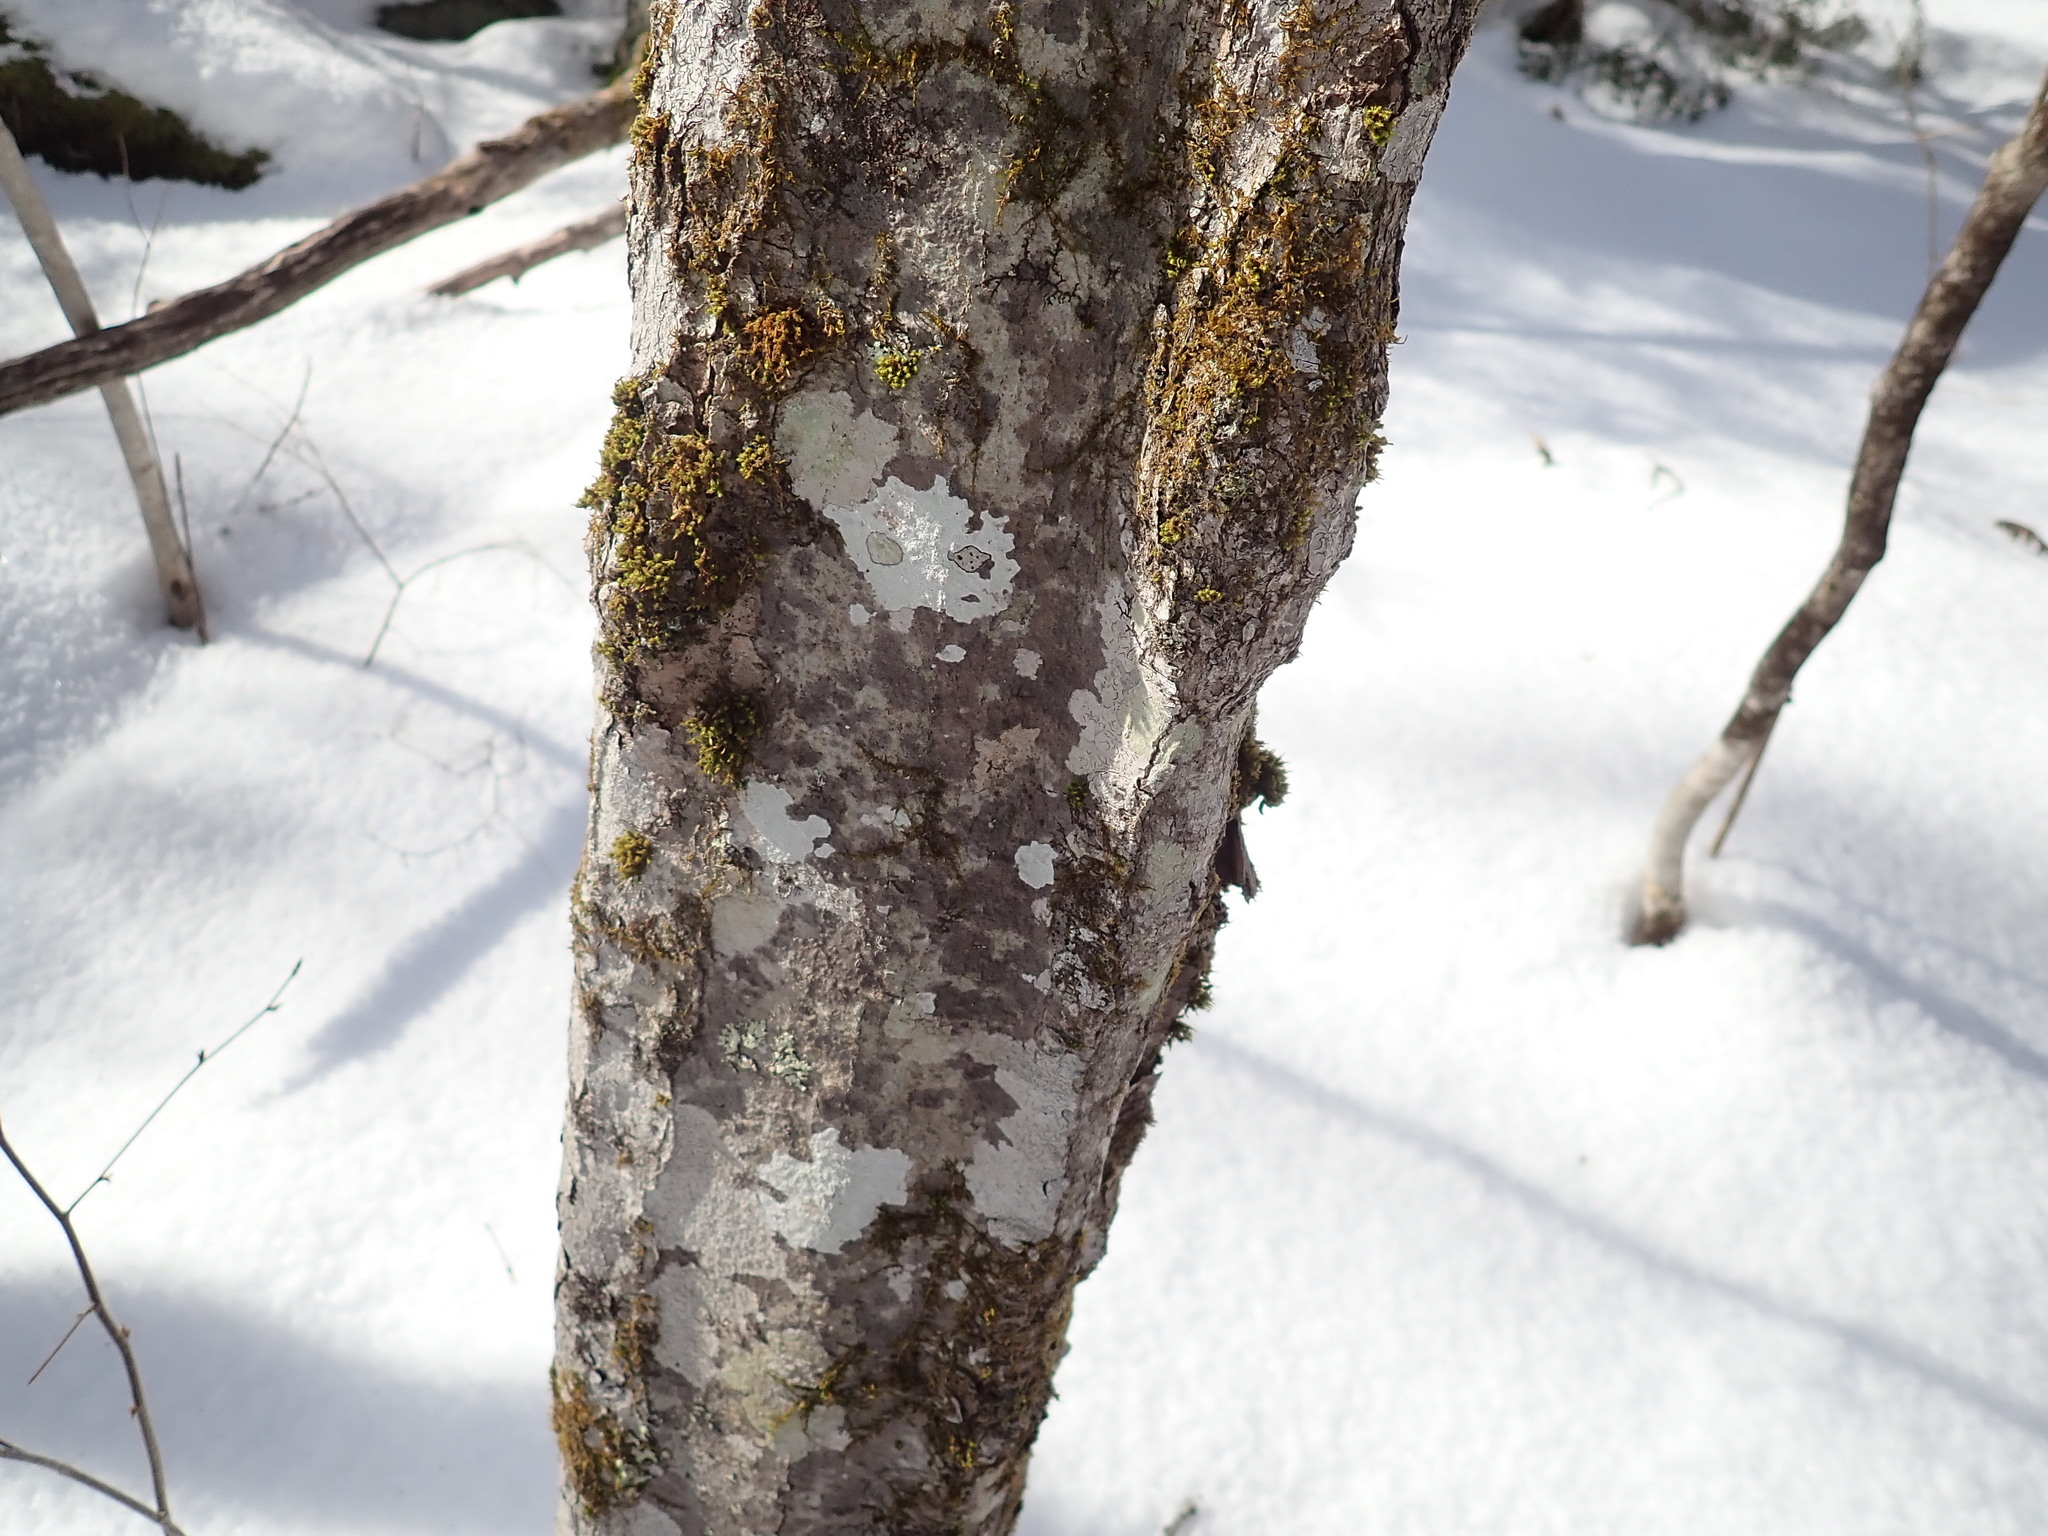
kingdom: Plantae
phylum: Tracheophyta
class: Magnoliopsida
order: Fagales
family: Betulaceae
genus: Carpinus
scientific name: Carpinus caroliniana
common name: American hornbeam
